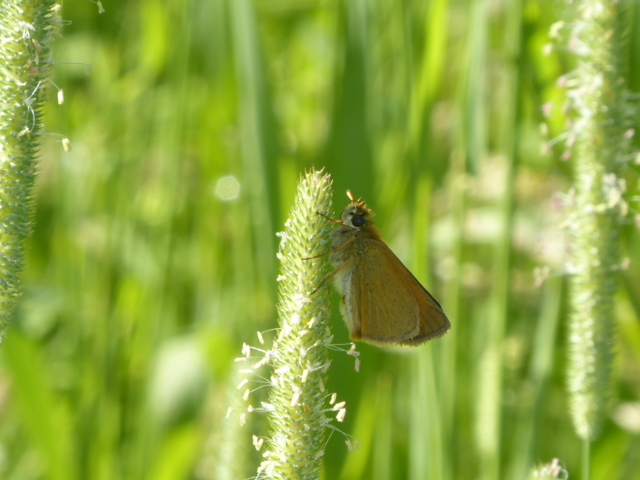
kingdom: Animalia
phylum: Arthropoda
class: Insecta
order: Lepidoptera
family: Hesperiidae
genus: Thymelicus
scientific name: Thymelicus lineola
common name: Essex skipper
